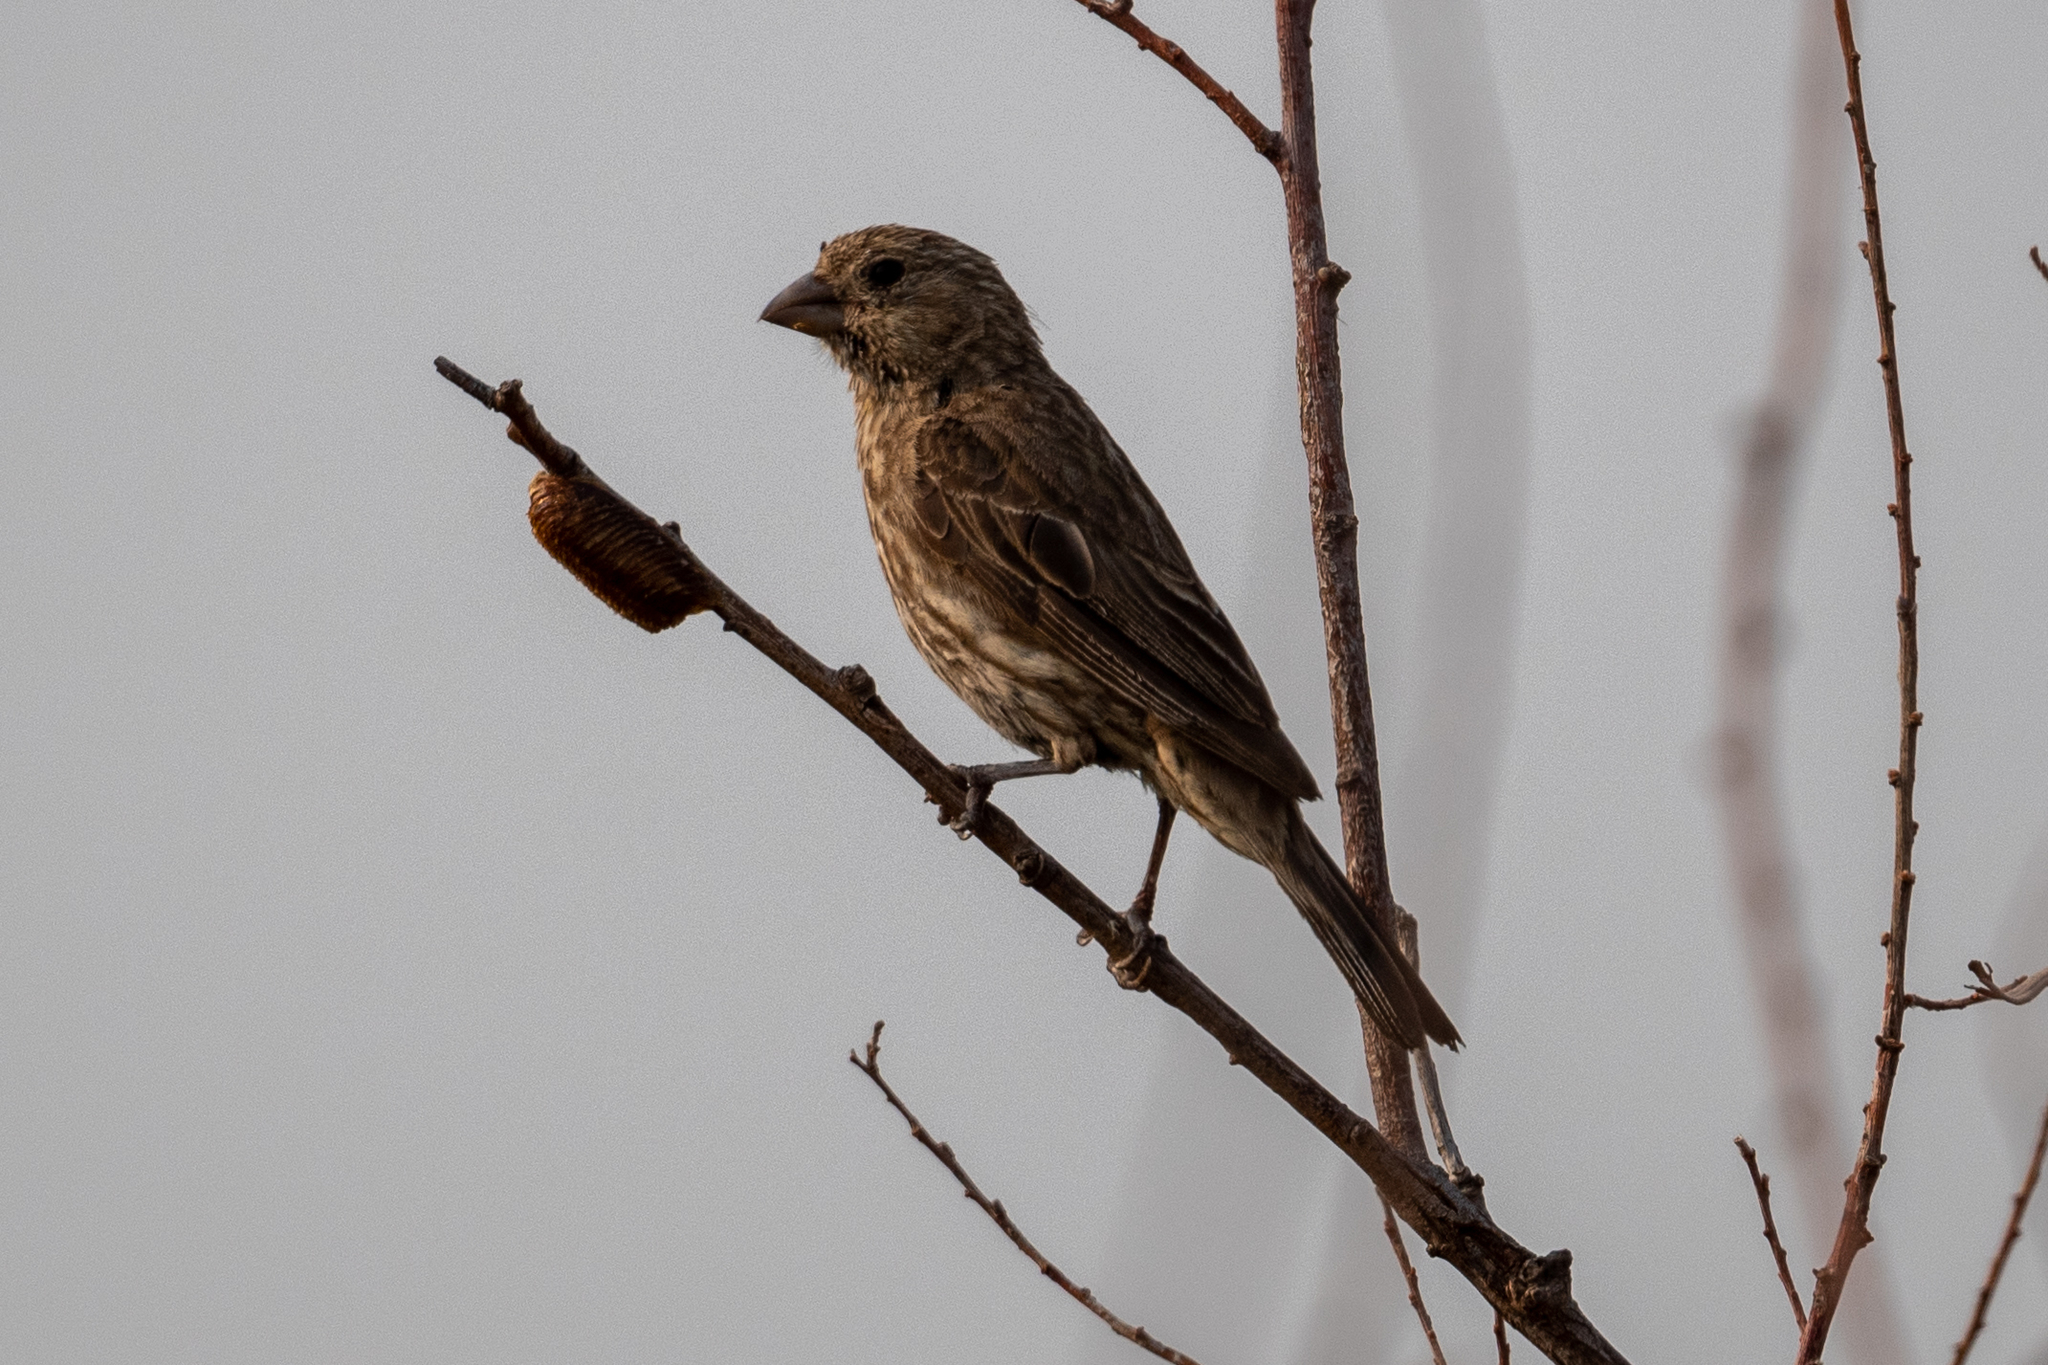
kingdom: Animalia
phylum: Chordata
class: Aves
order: Passeriformes
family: Fringillidae
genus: Haemorhous
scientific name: Haemorhous mexicanus
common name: House finch
